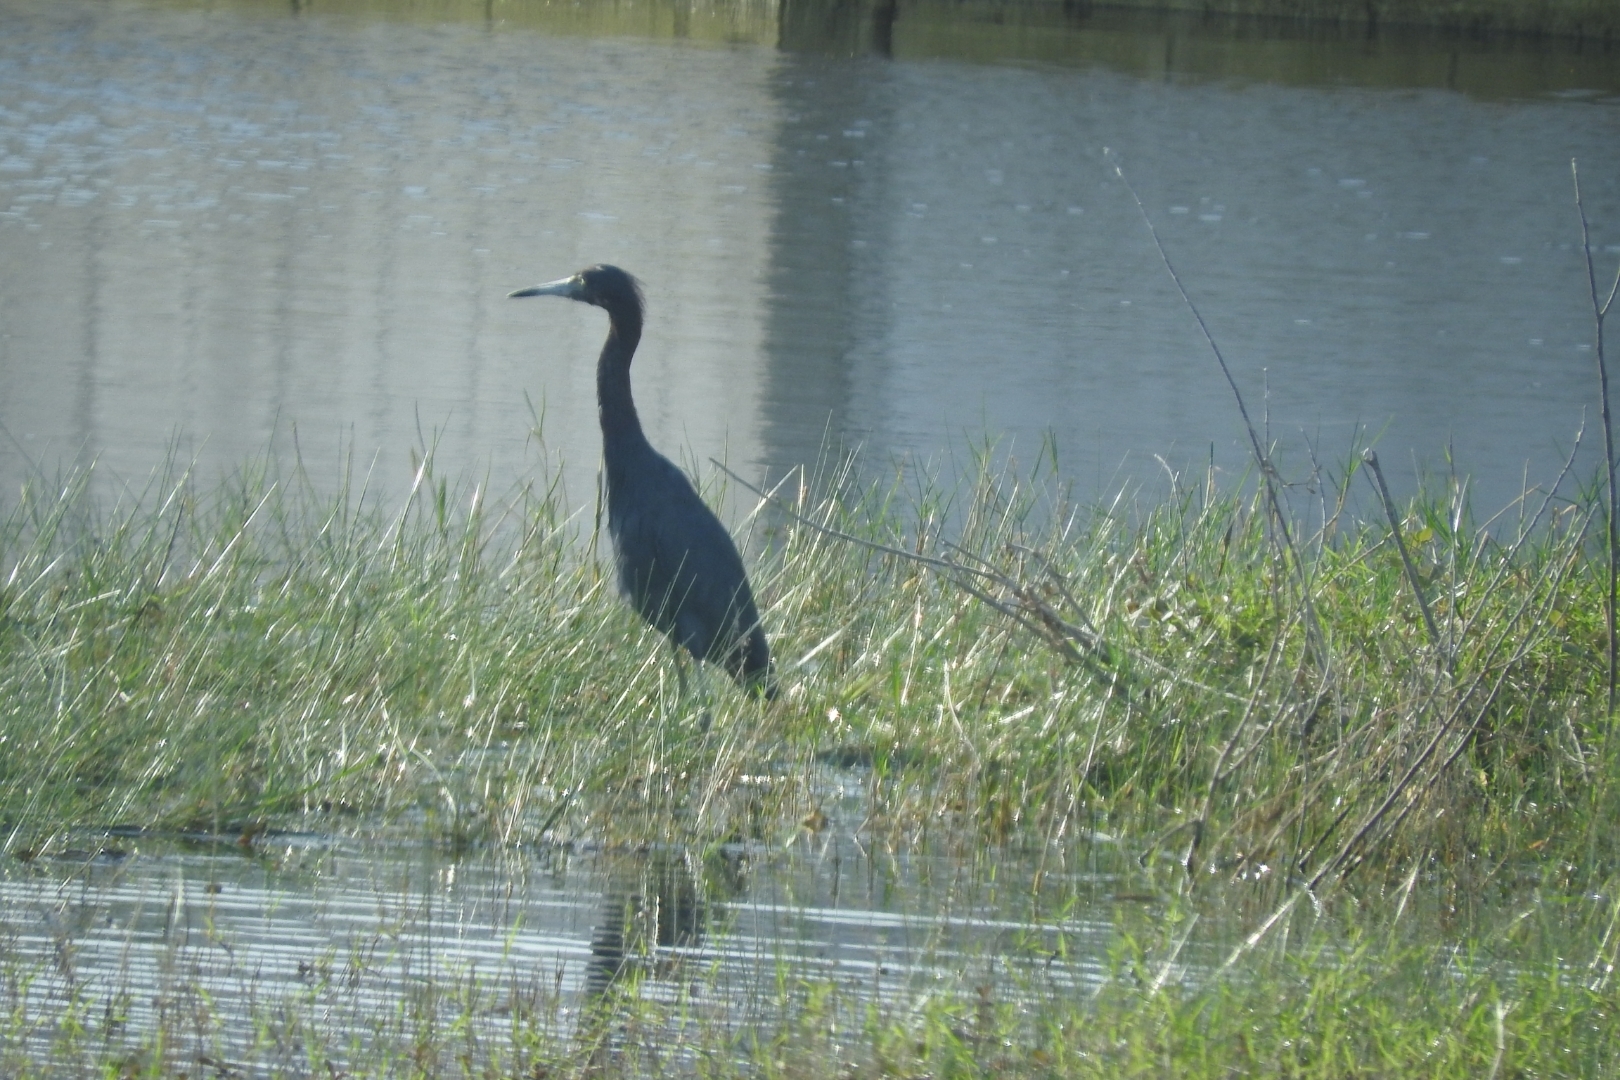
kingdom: Animalia
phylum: Chordata
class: Aves
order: Pelecaniformes
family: Ardeidae
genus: Egretta
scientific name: Egretta caerulea
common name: Little blue heron
